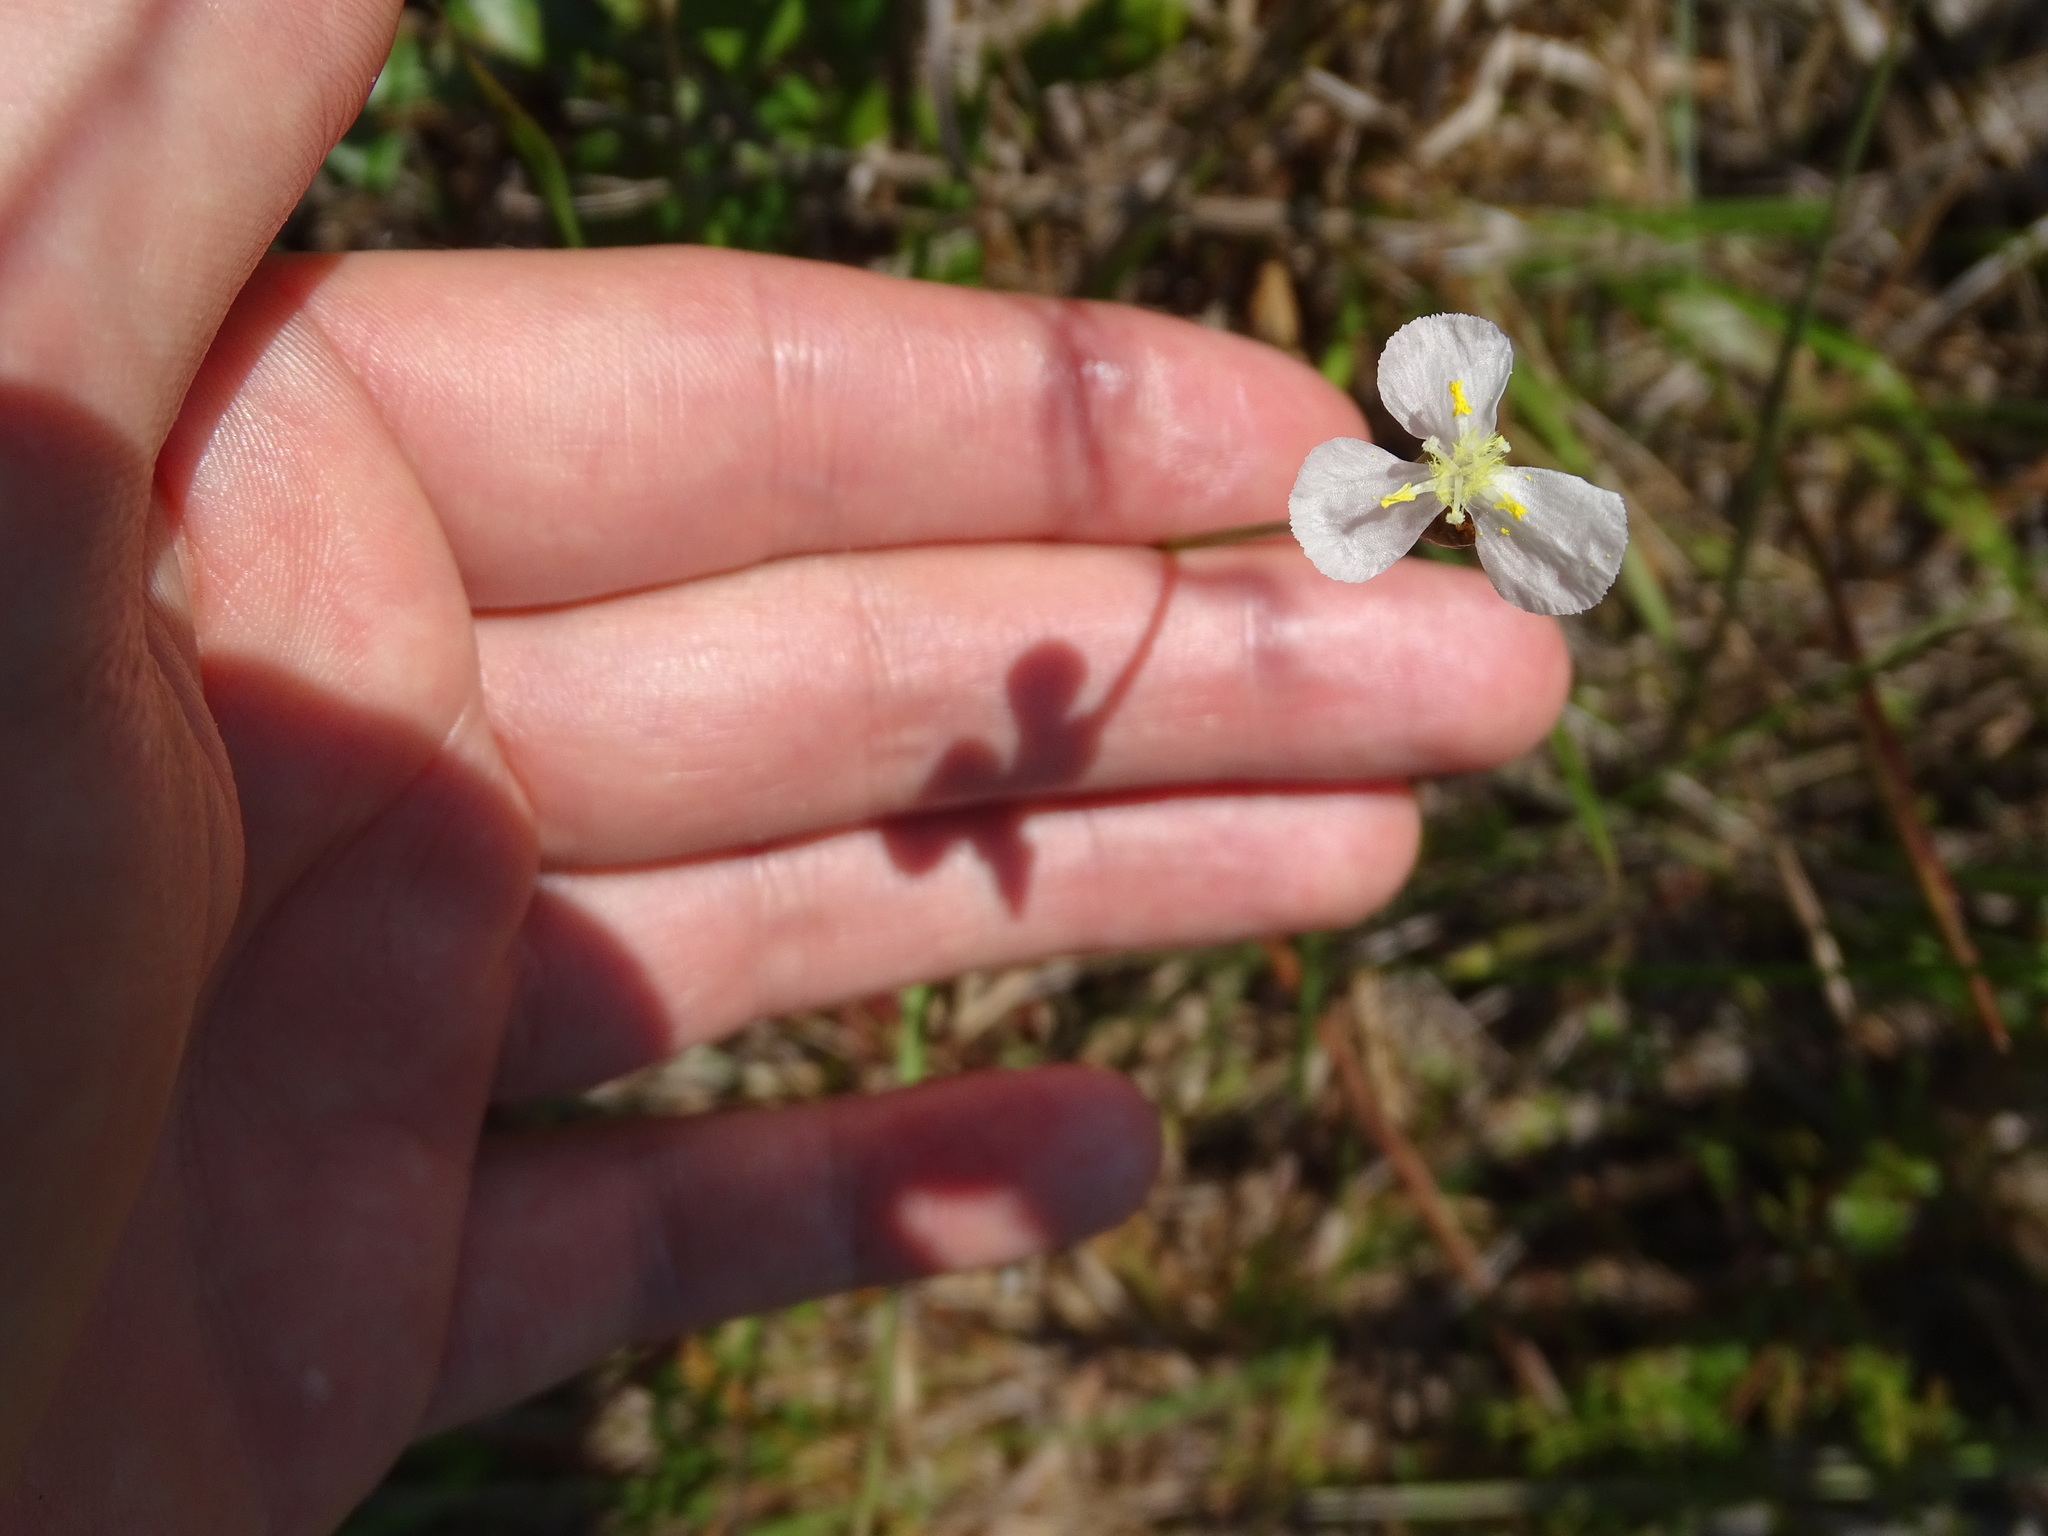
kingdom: Plantae
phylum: Tracheophyta
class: Liliopsida
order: Poales
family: Xyridaceae
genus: Xyris
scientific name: Xyris caroliniana
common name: Carolina yellow-eyed-grass
